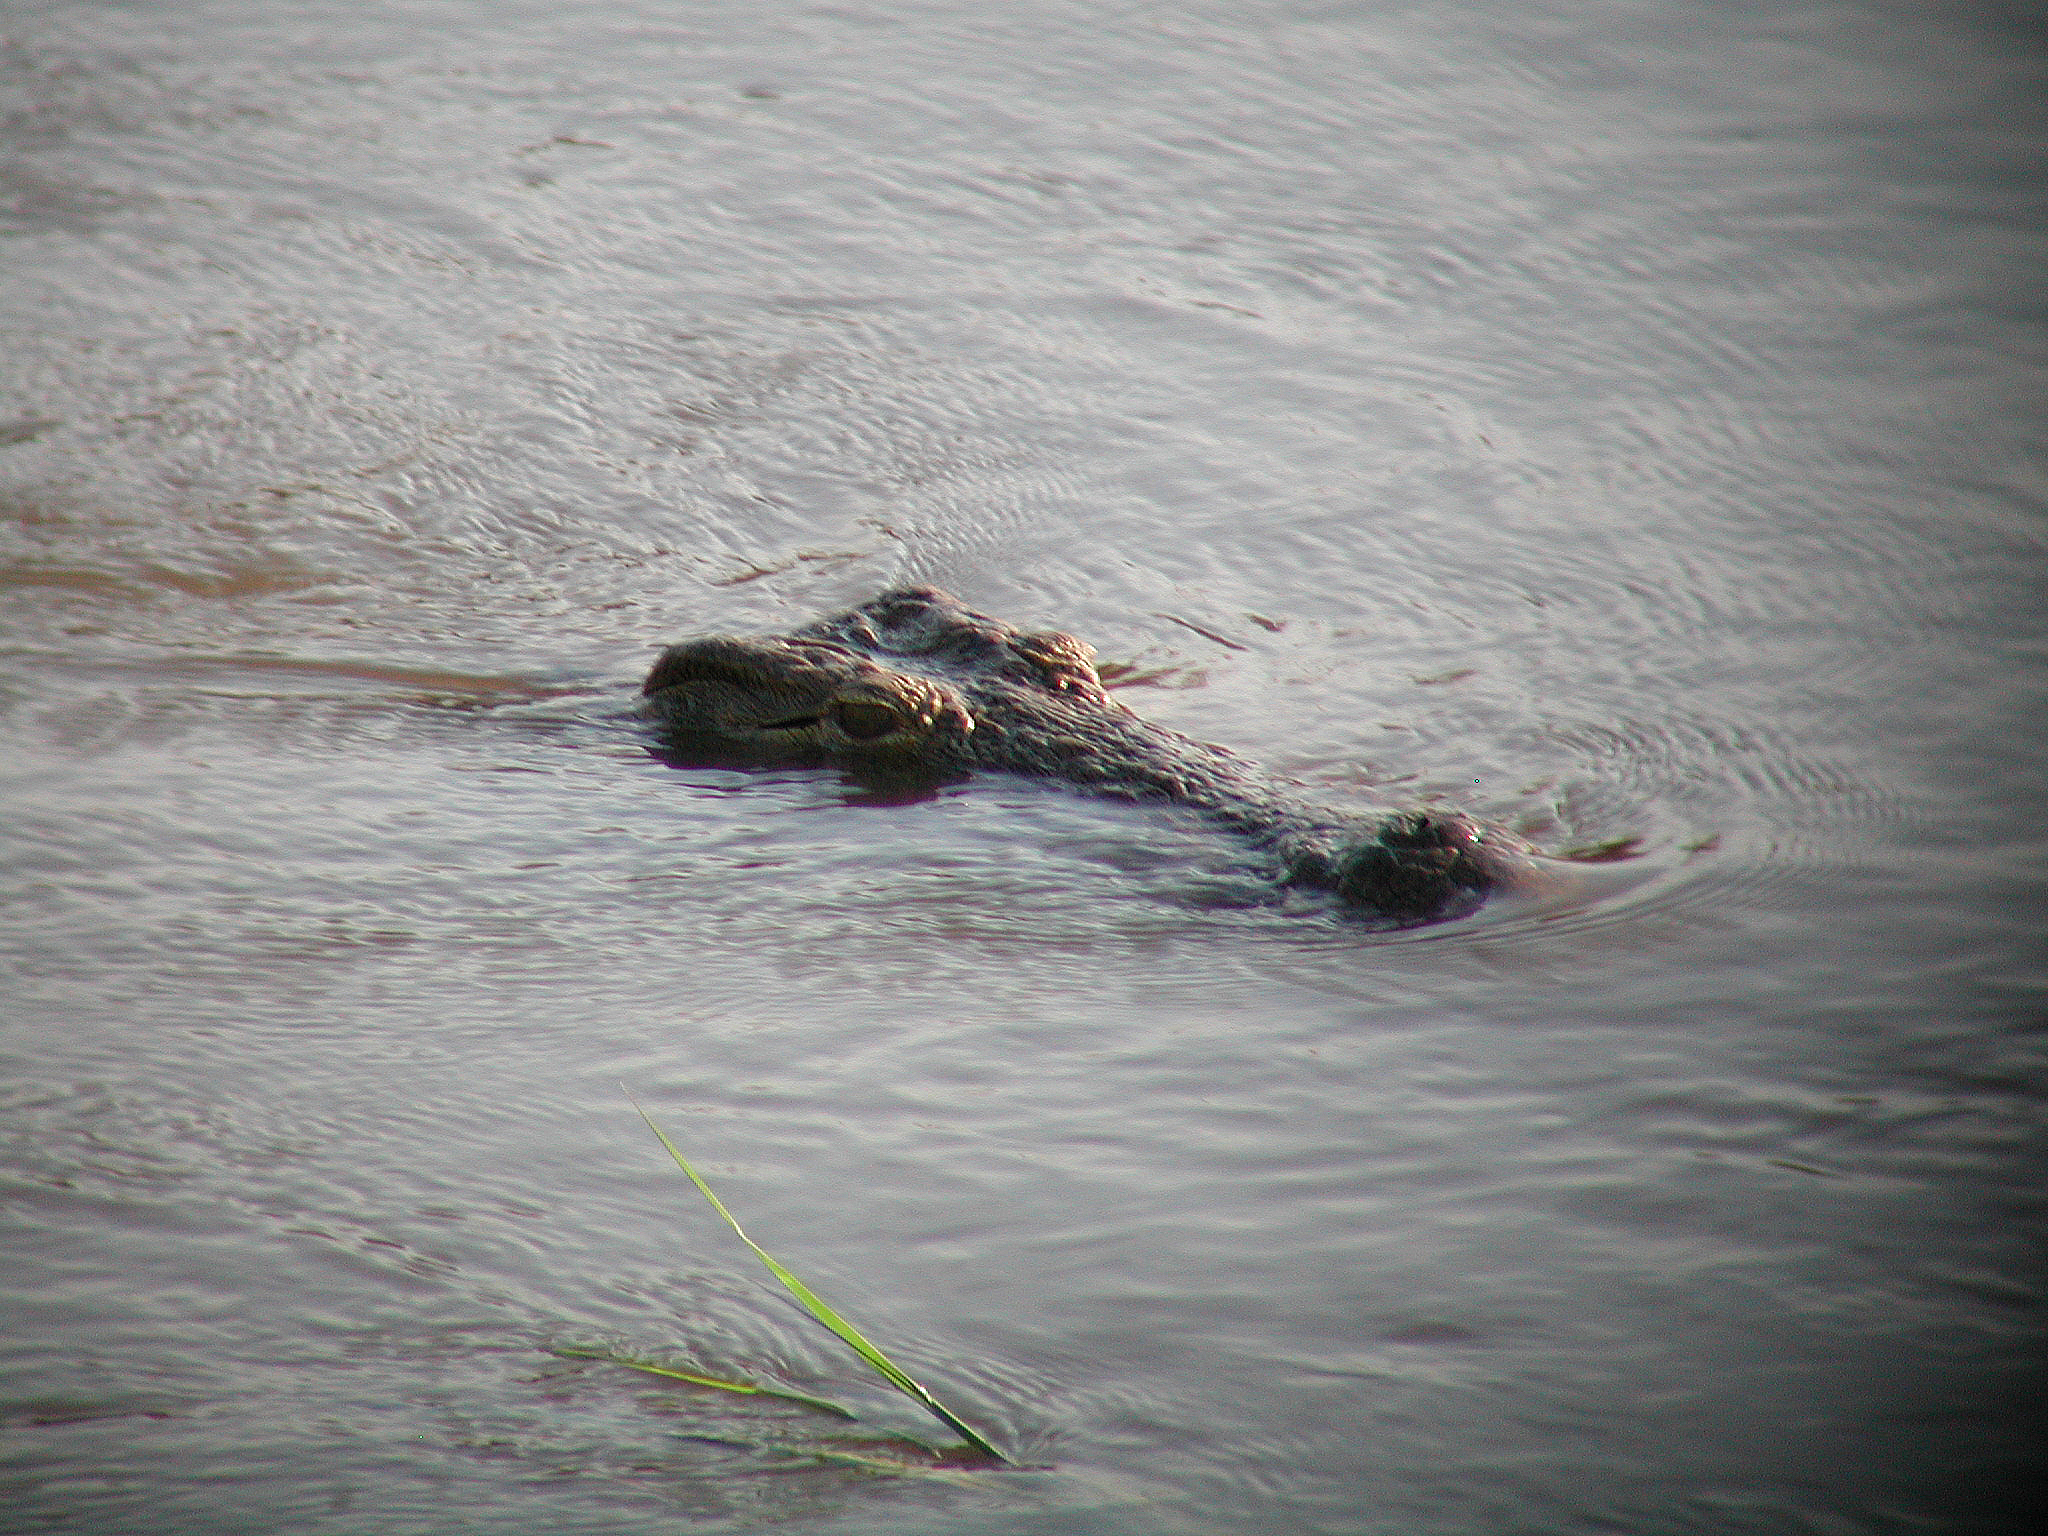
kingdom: Animalia
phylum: Chordata
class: Crocodylia
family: Crocodylidae
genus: Crocodylus
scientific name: Crocodylus niloticus
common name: Nile crocodile
